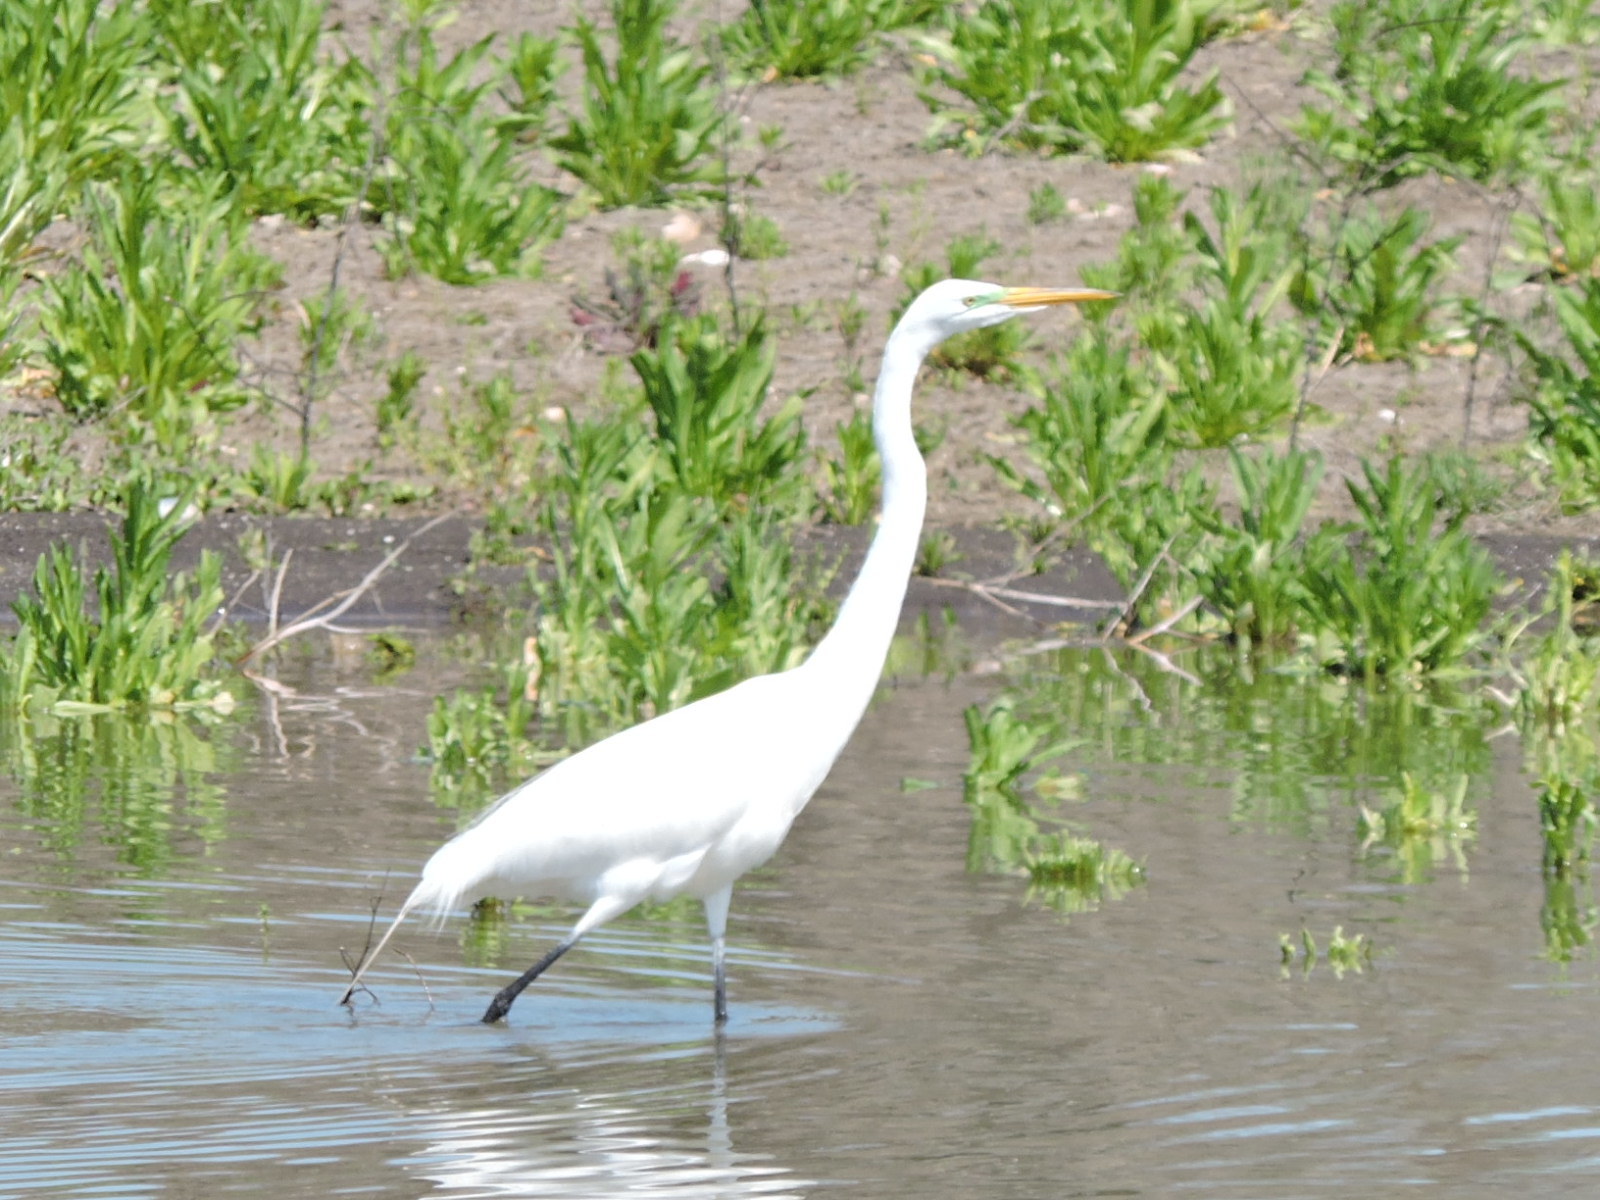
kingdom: Animalia
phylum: Chordata
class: Aves
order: Pelecaniformes
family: Ardeidae
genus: Ardea
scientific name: Ardea alba
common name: Great egret
